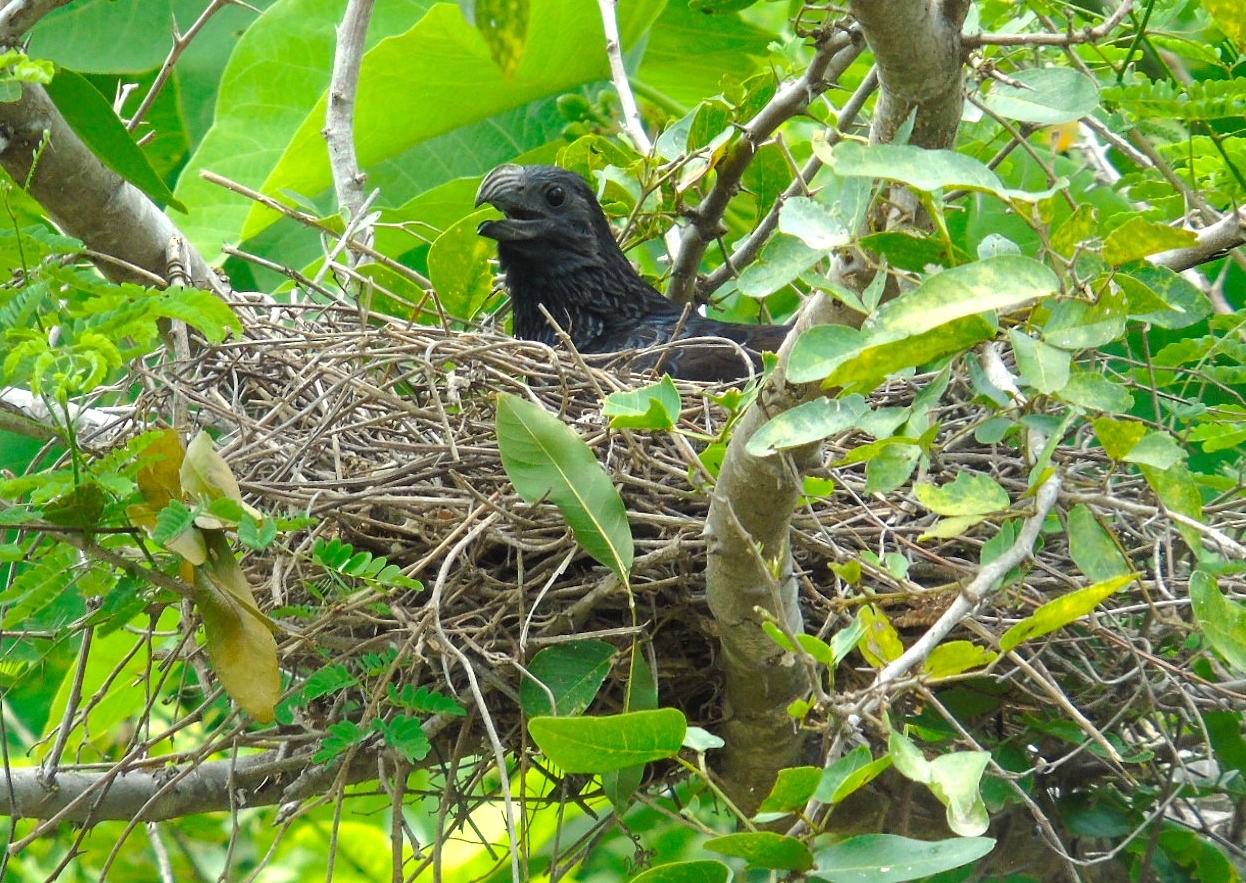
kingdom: Animalia
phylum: Chordata
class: Aves
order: Cuculiformes
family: Cuculidae
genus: Crotophaga
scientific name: Crotophaga sulcirostris
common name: Groove-billed ani
